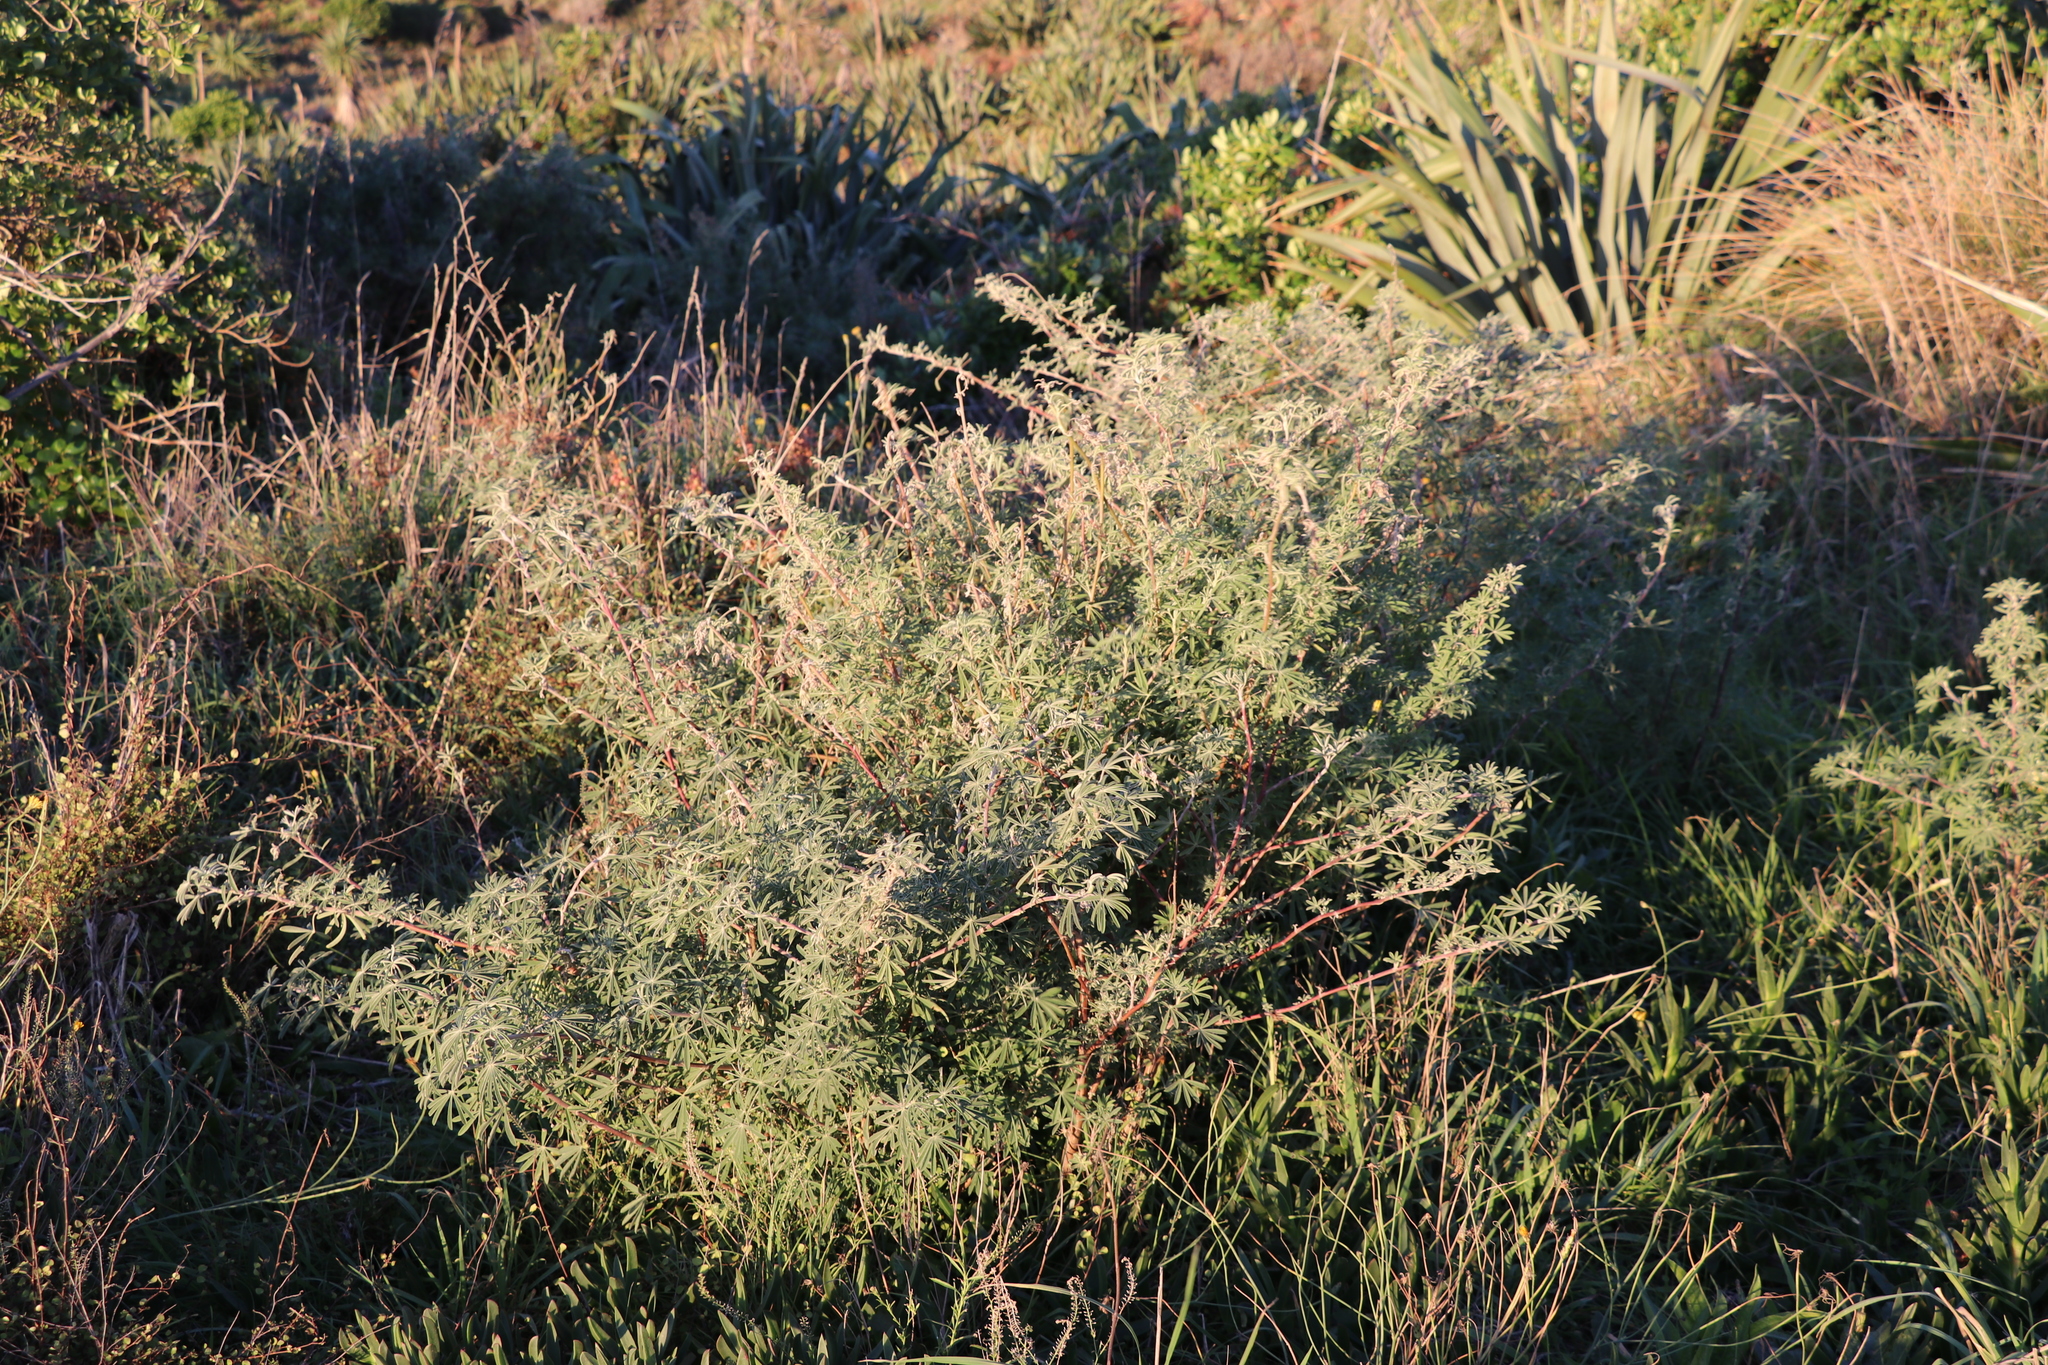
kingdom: Plantae
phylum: Tracheophyta
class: Magnoliopsida
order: Fabales
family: Fabaceae
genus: Lupinus
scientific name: Lupinus arboreus
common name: Yellow bush lupine
